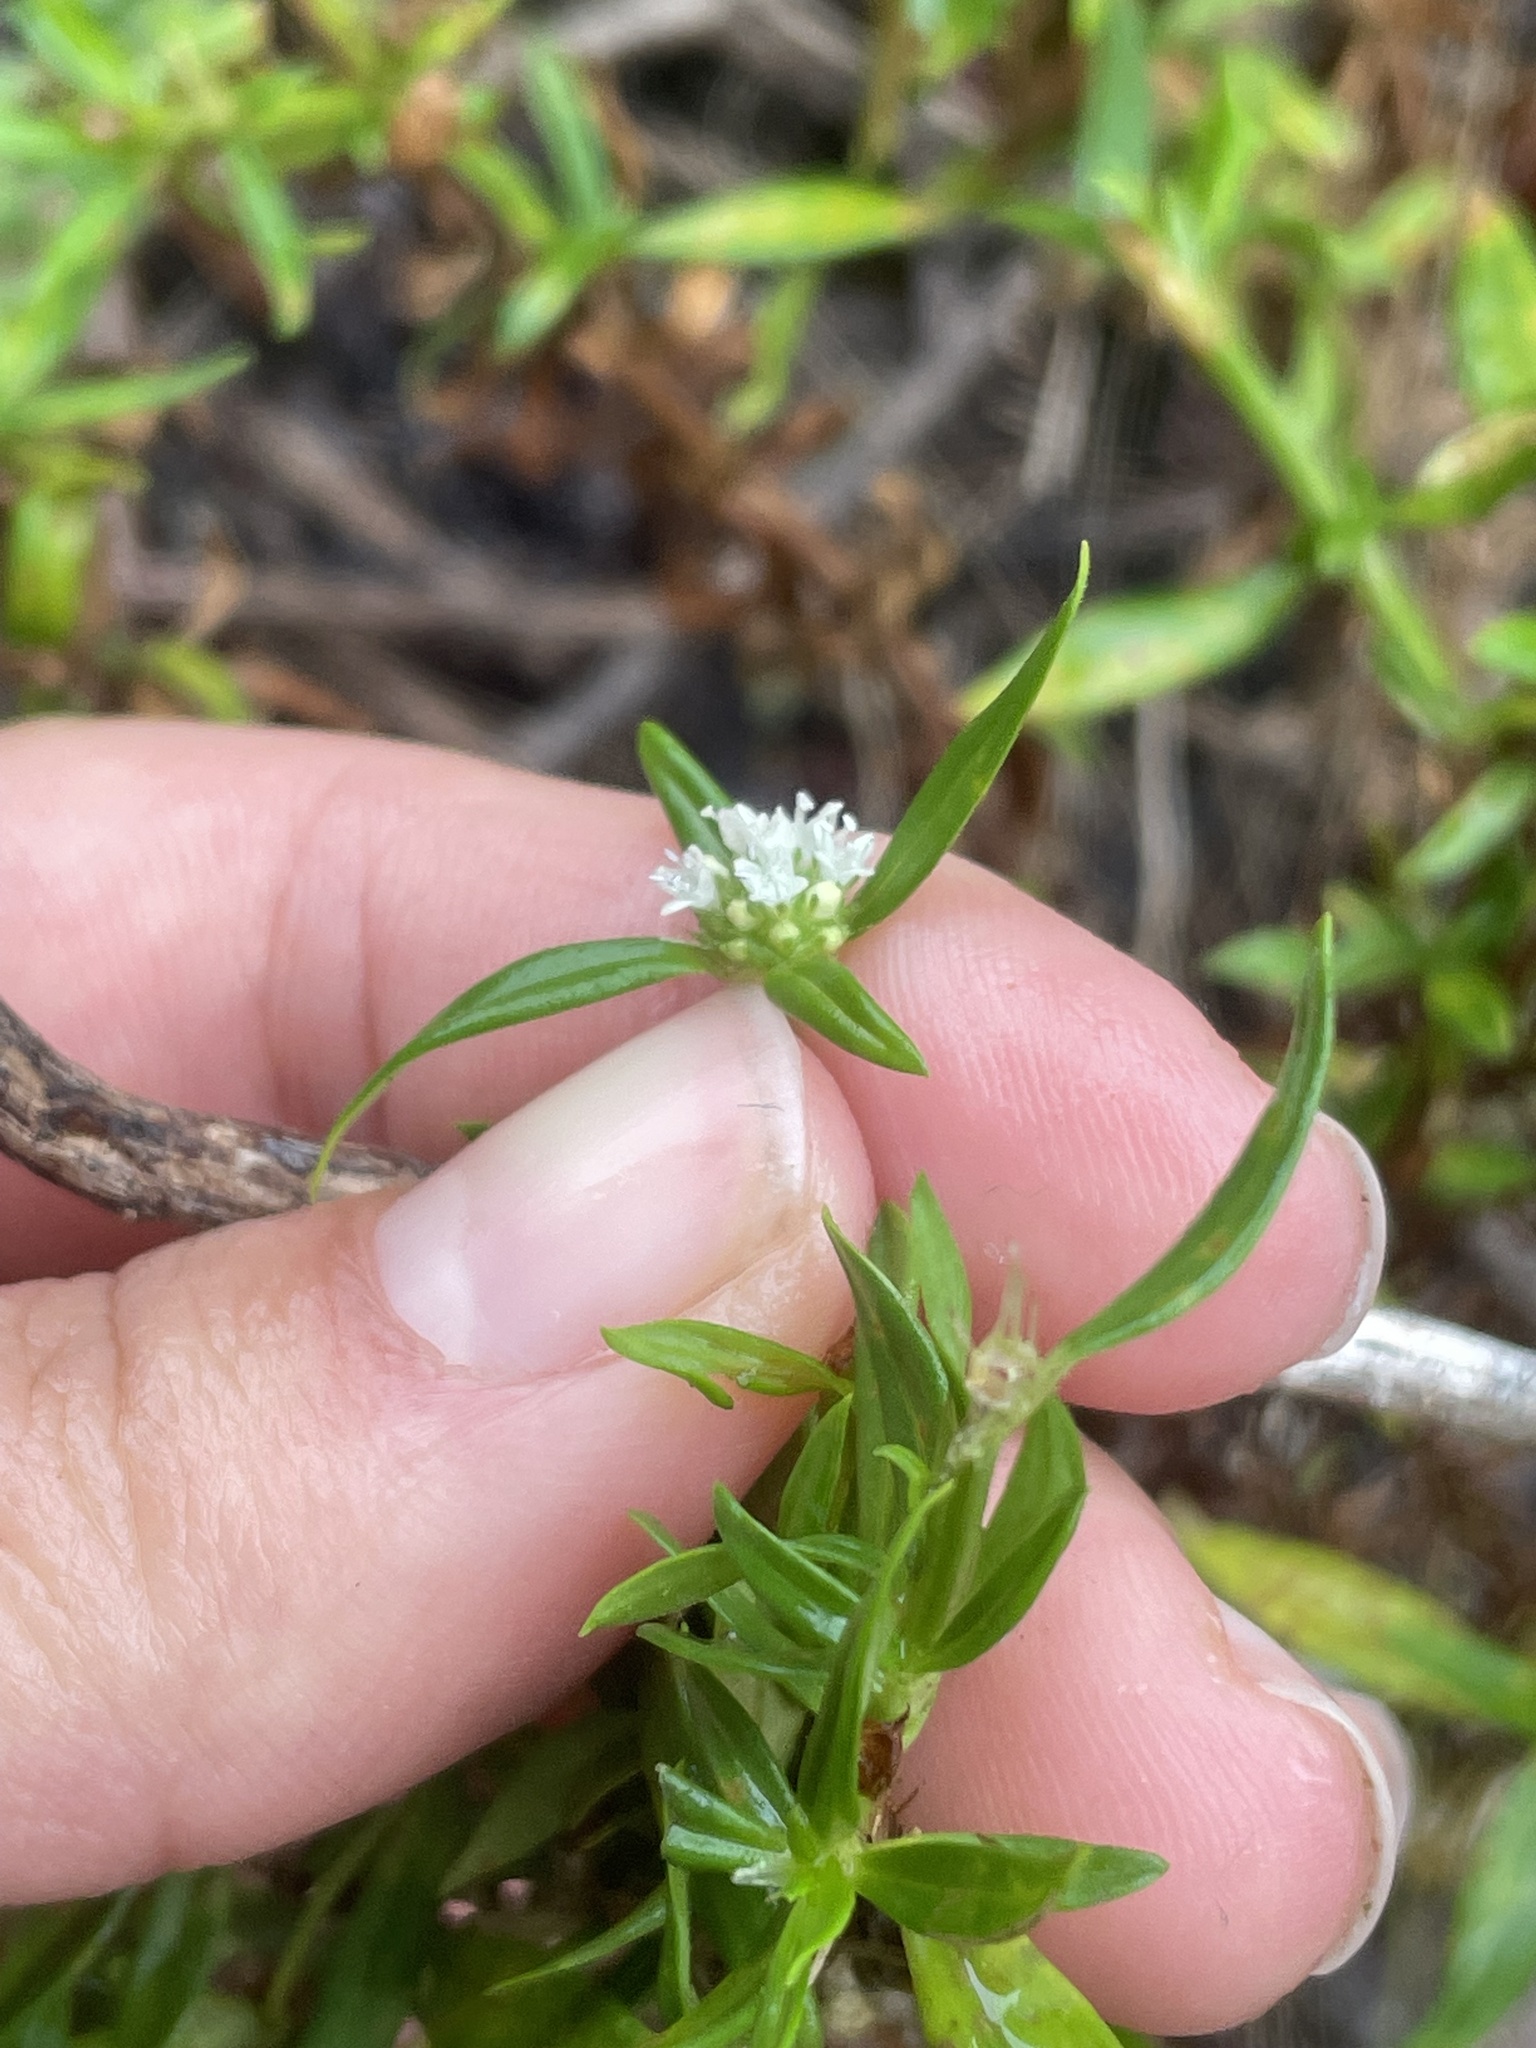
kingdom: Plantae
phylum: Tracheophyta
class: Magnoliopsida
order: Gentianales
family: Rubiaceae
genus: Spermacoce
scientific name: Spermacoce verticillata
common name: Shrubby false buttonweed
